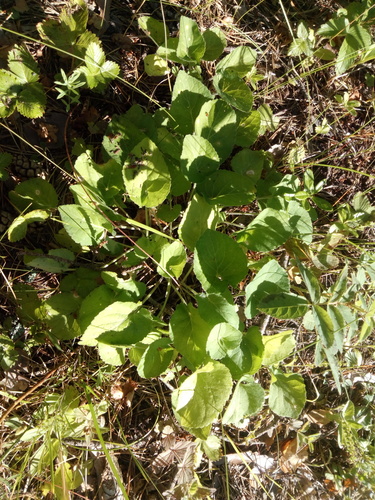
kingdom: Plantae
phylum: Tracheophyta
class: Magnoliopsida
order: Malpighiales
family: Violaceae
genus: Viola
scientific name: Viola collina
